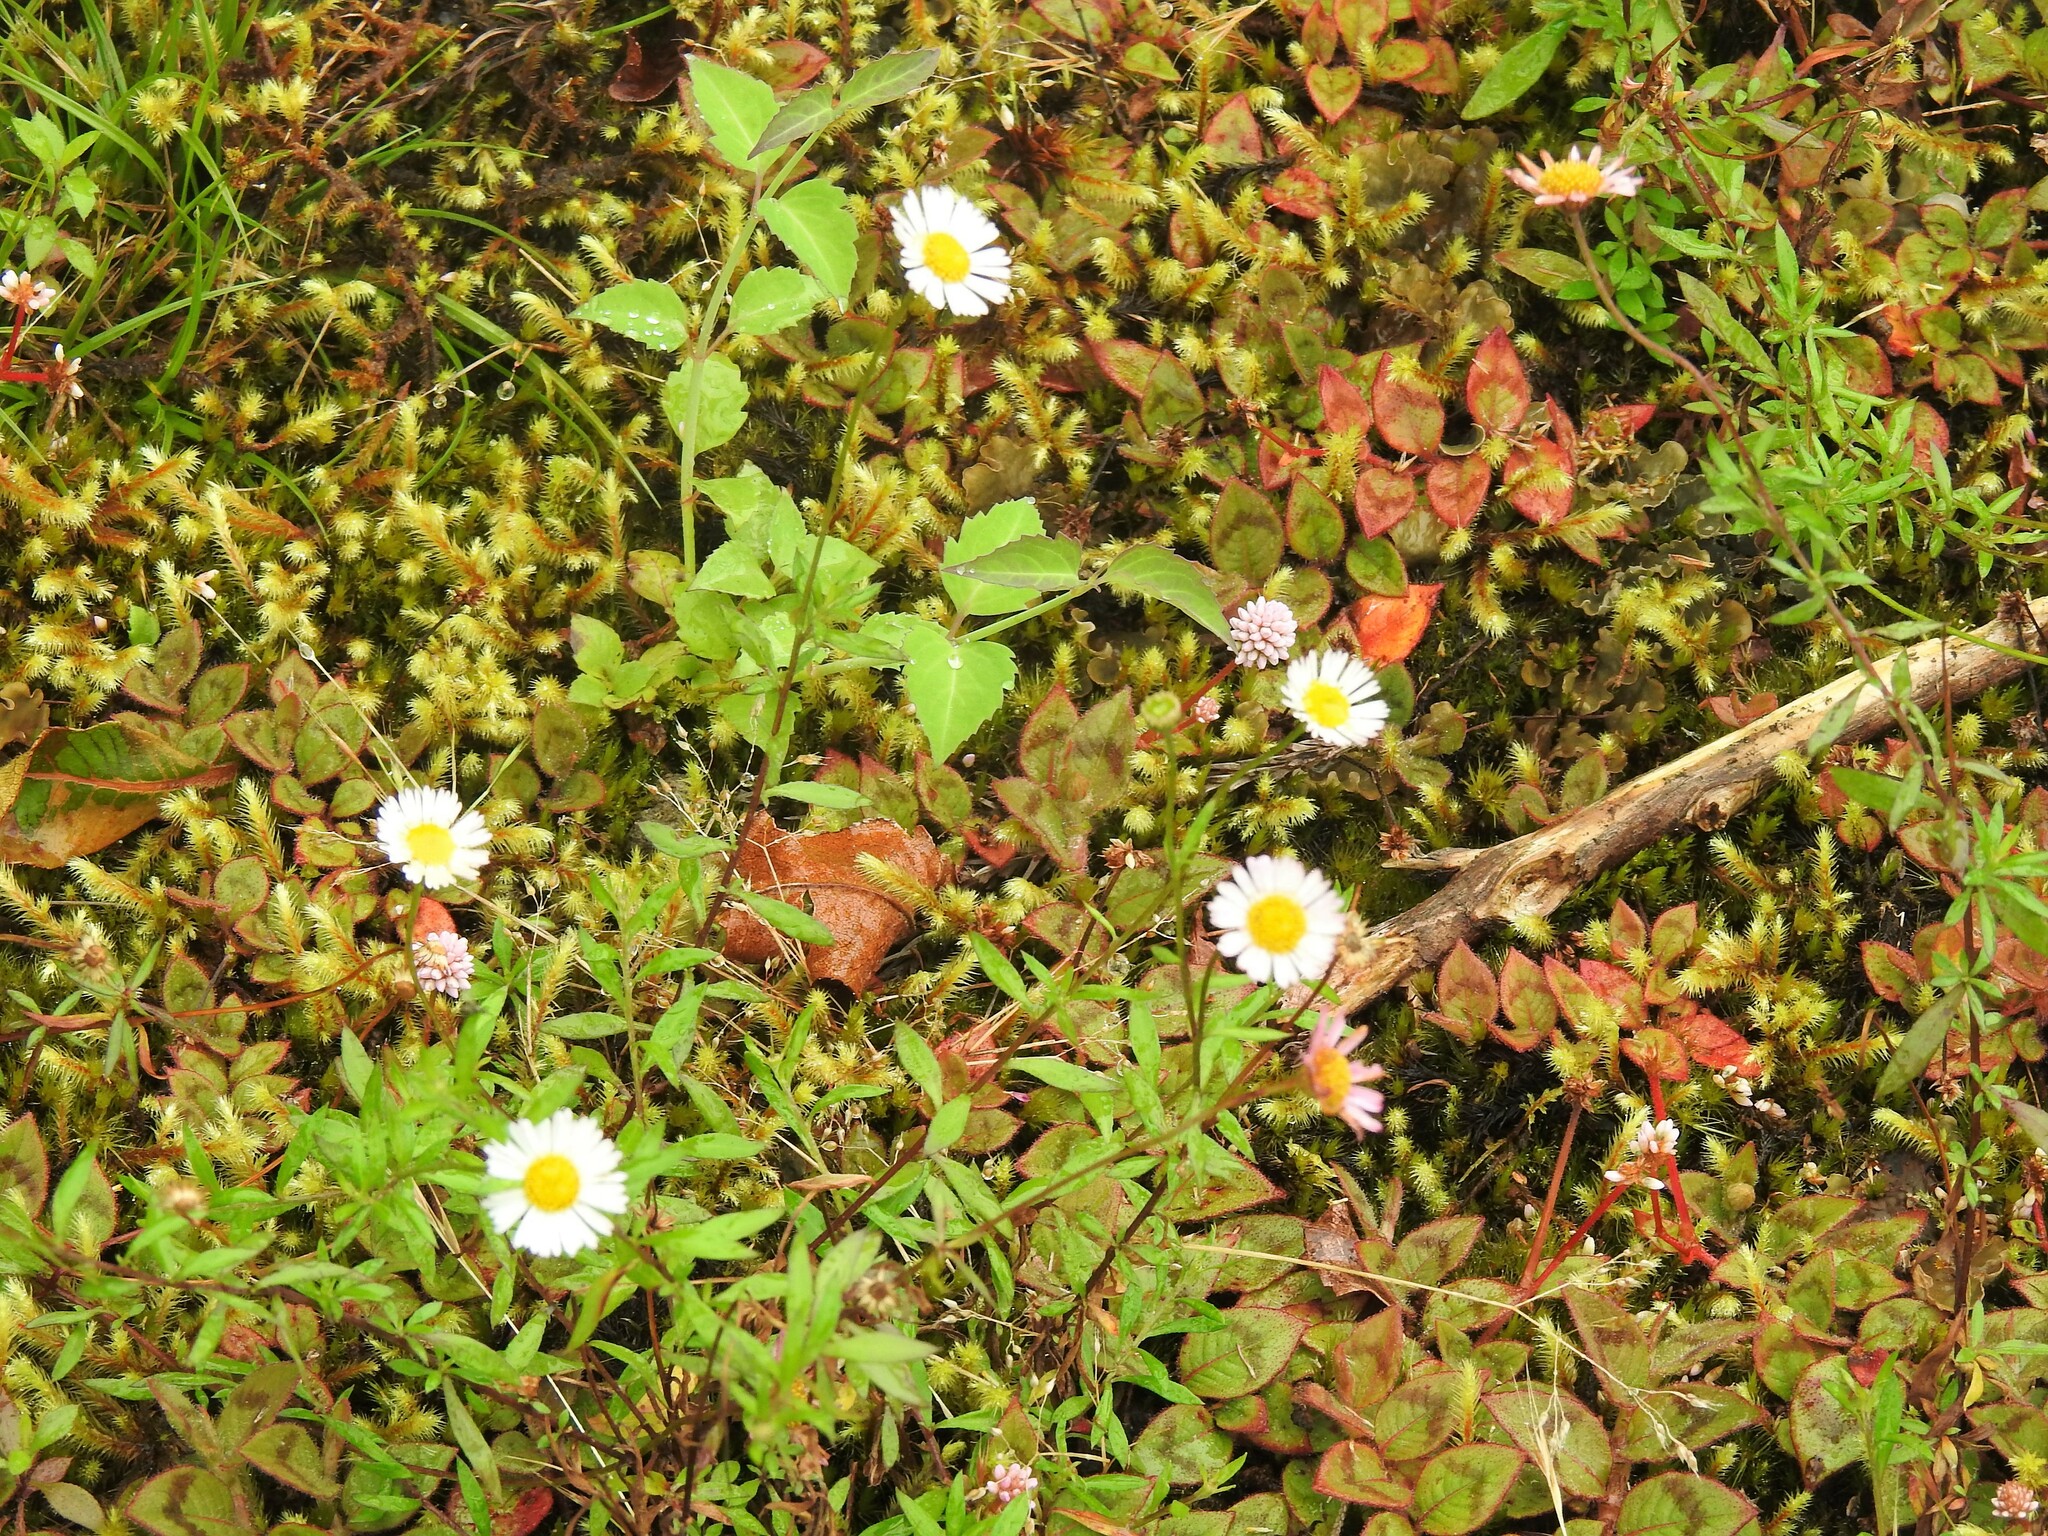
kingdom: Plantae
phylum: Tracheophyta
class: Magnoliopsida
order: Asterales
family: Asteraceae
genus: Erigeron
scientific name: Erigeron karvinskianus
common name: Mexican fleabane
